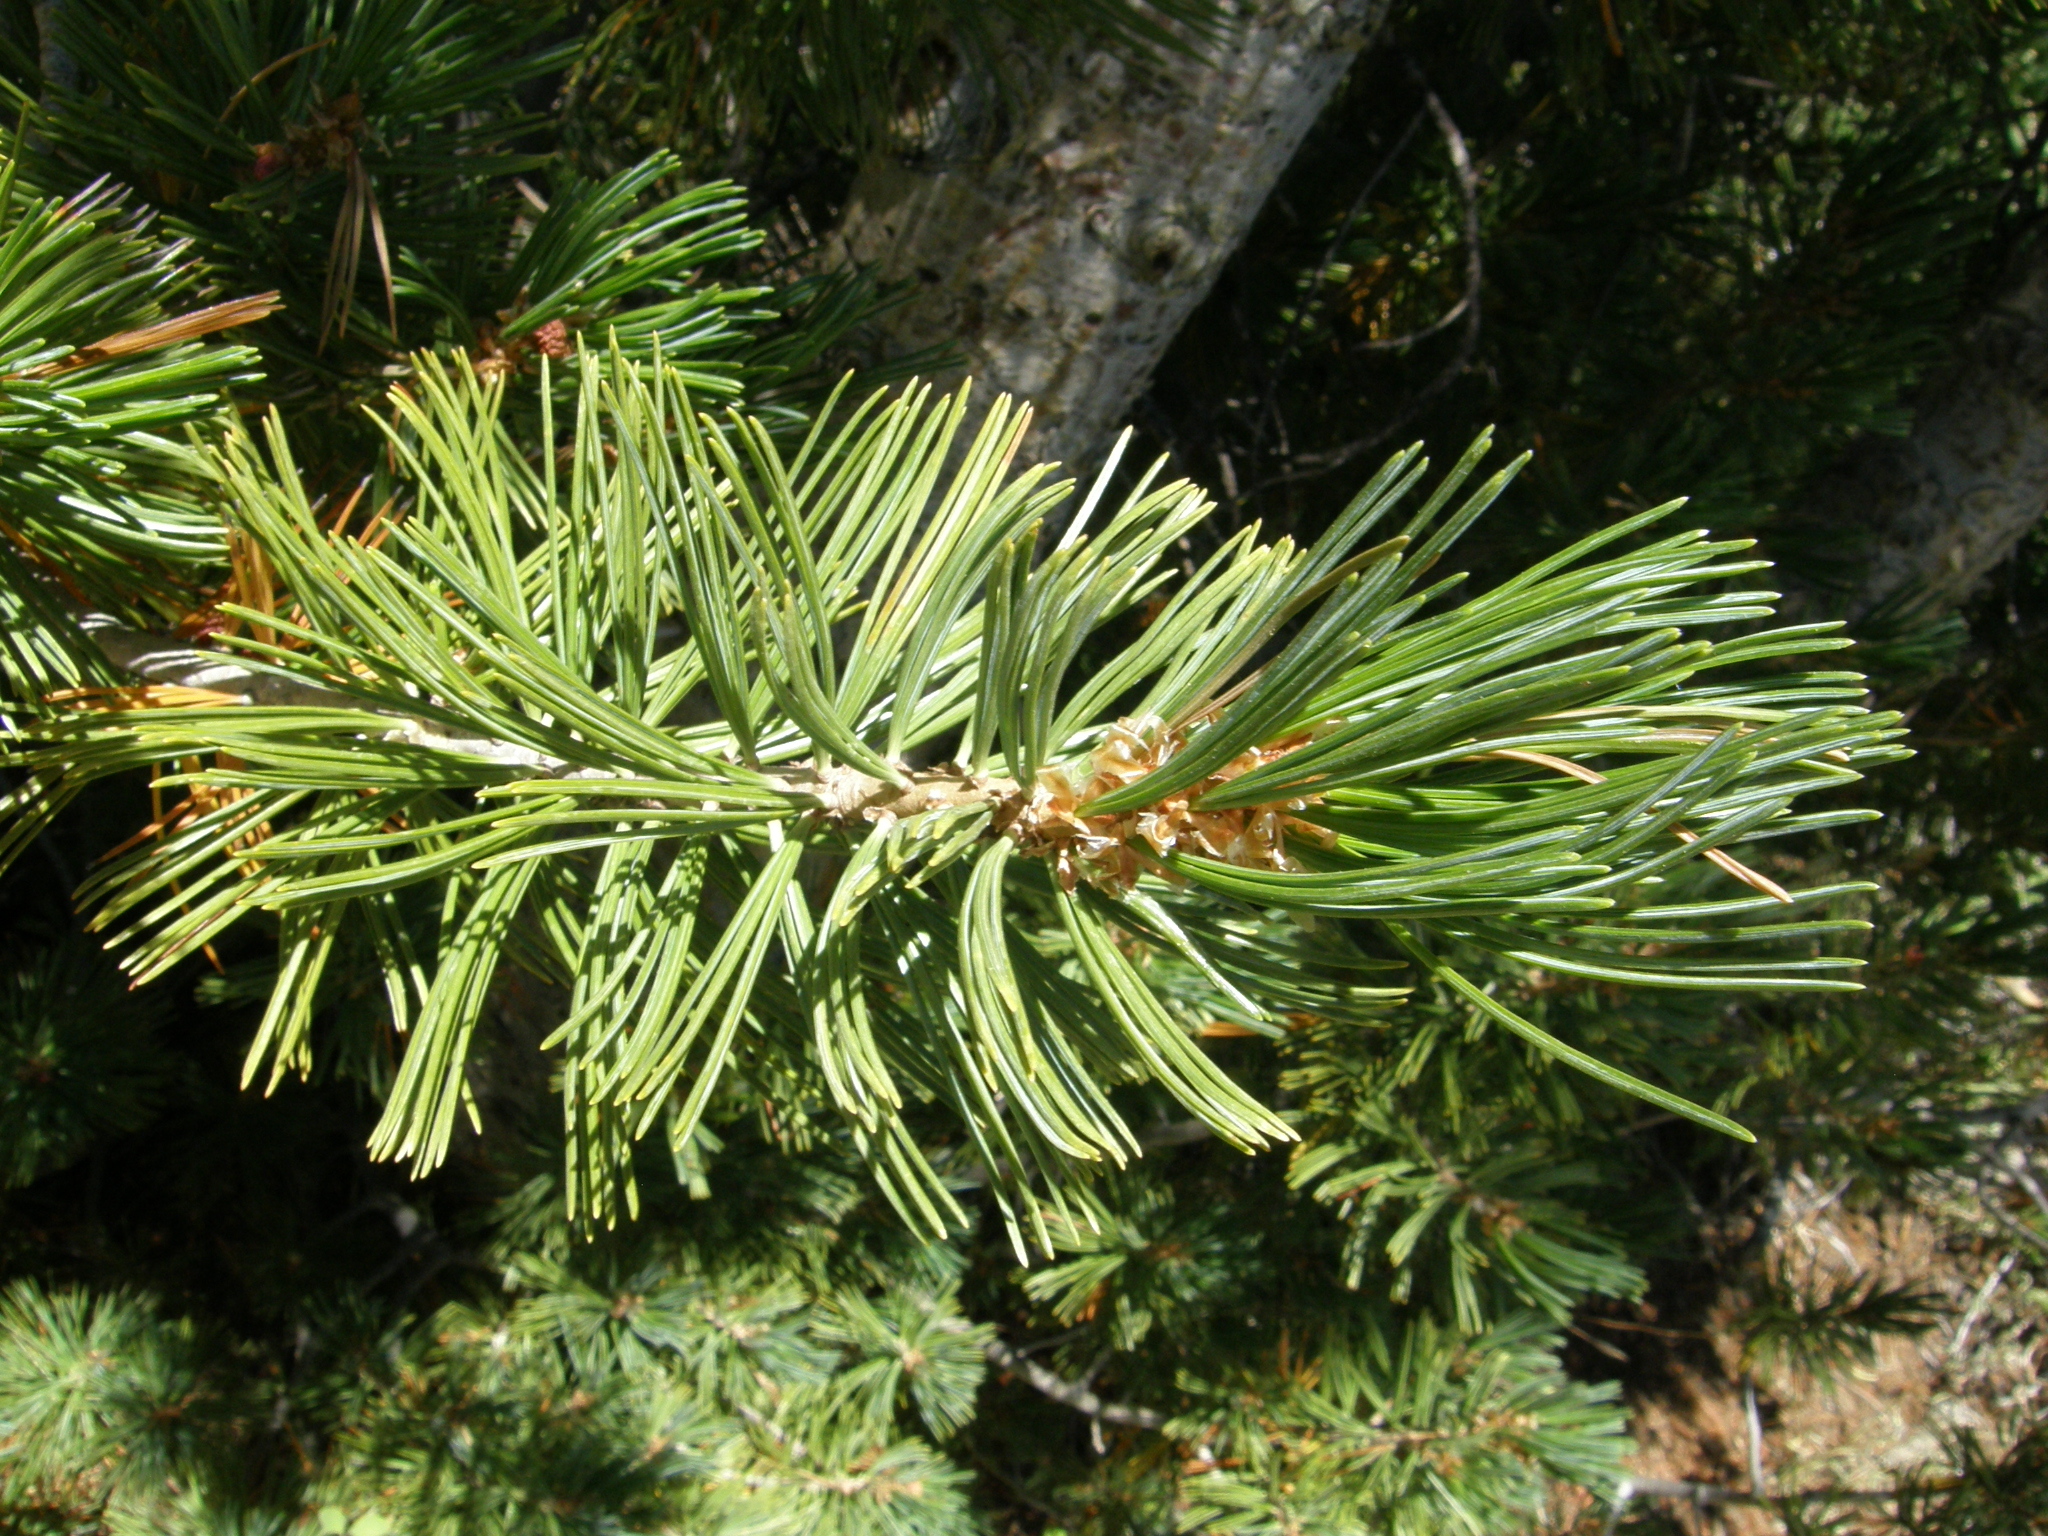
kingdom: Plantae
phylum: Tracheophyta
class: Pinopsida
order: Pinales
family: Pinaceae
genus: Pinus
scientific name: Pinus albicaulis
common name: Whitebark pine
